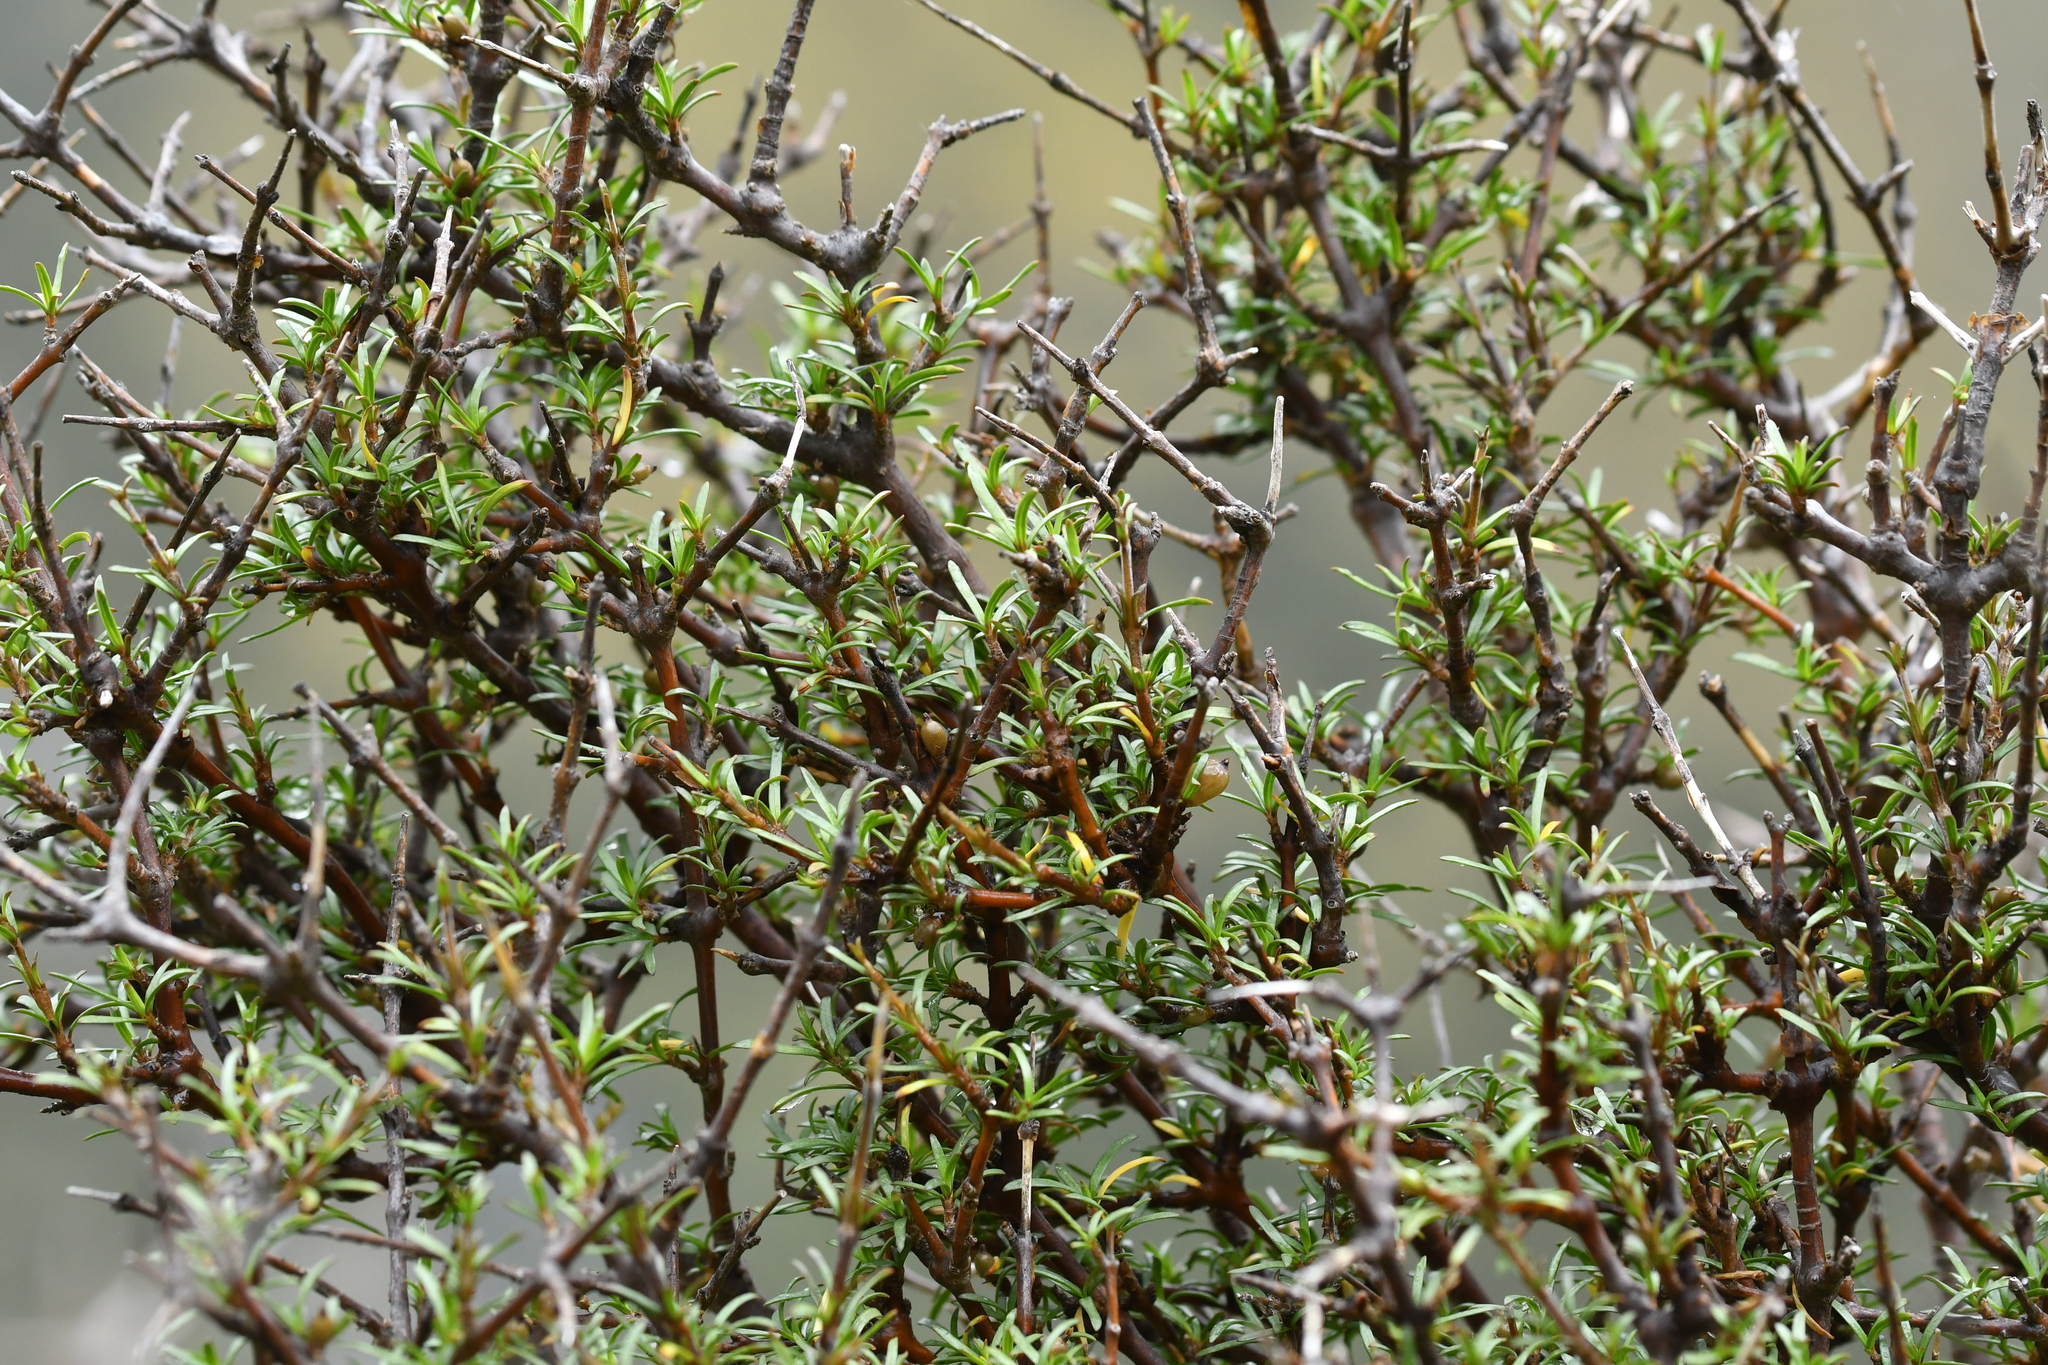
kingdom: Plantae
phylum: Tracheophyta
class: Magnoliopsida
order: Gentianales
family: Rubiaceae
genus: Coprosma
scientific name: Coprosma rugosa
